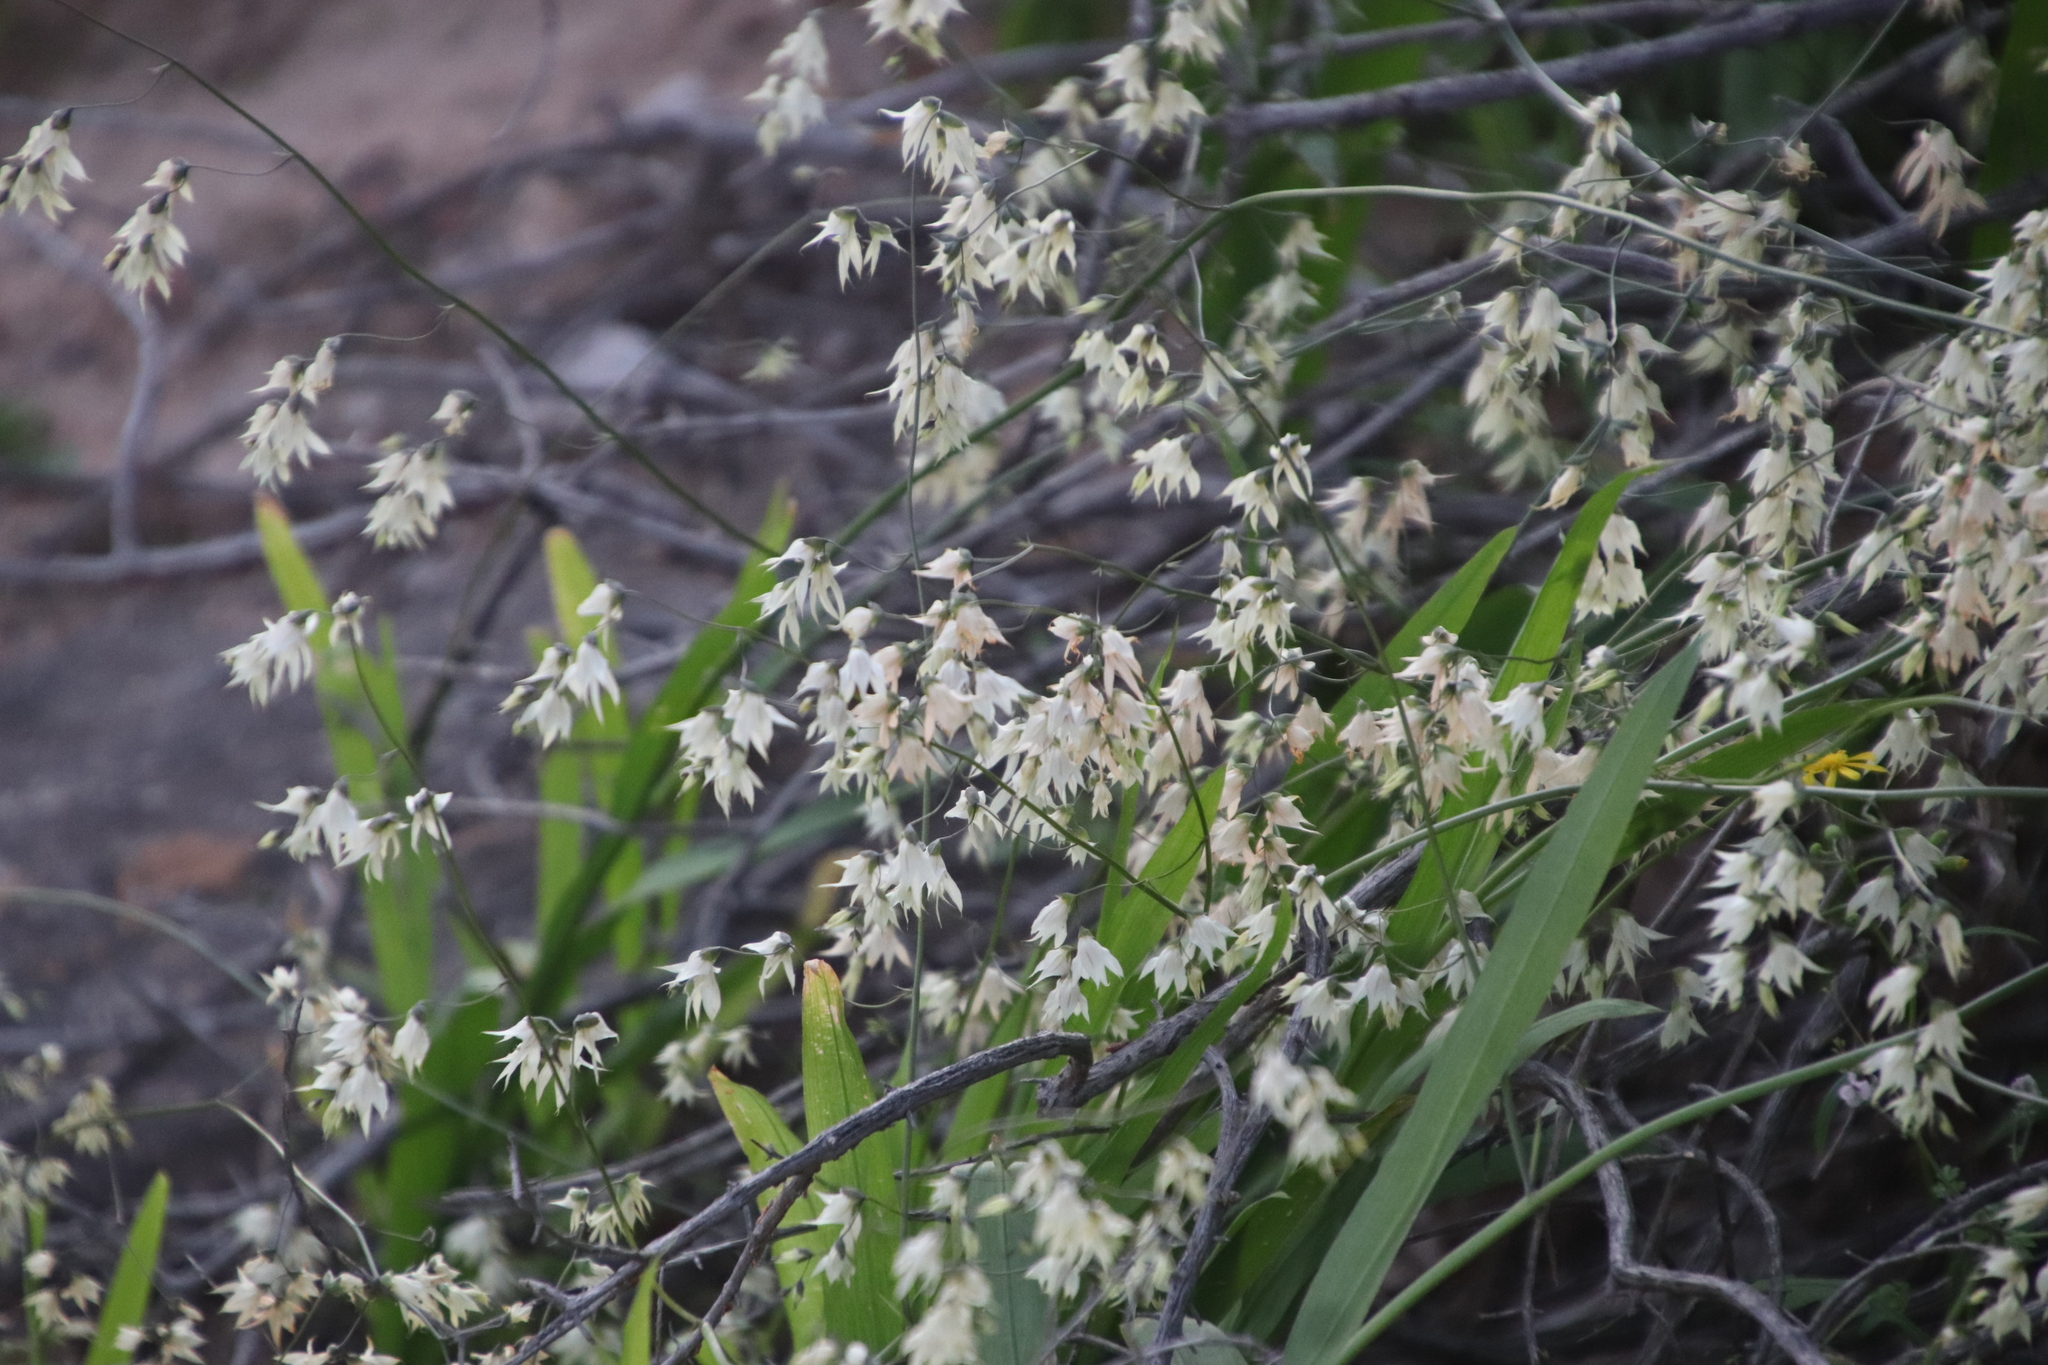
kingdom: Plantae
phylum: Tracheophyta
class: Liliopsida
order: Asparagales
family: Iridaceae
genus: Melasphaerula
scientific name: Melasphaerula graminea
